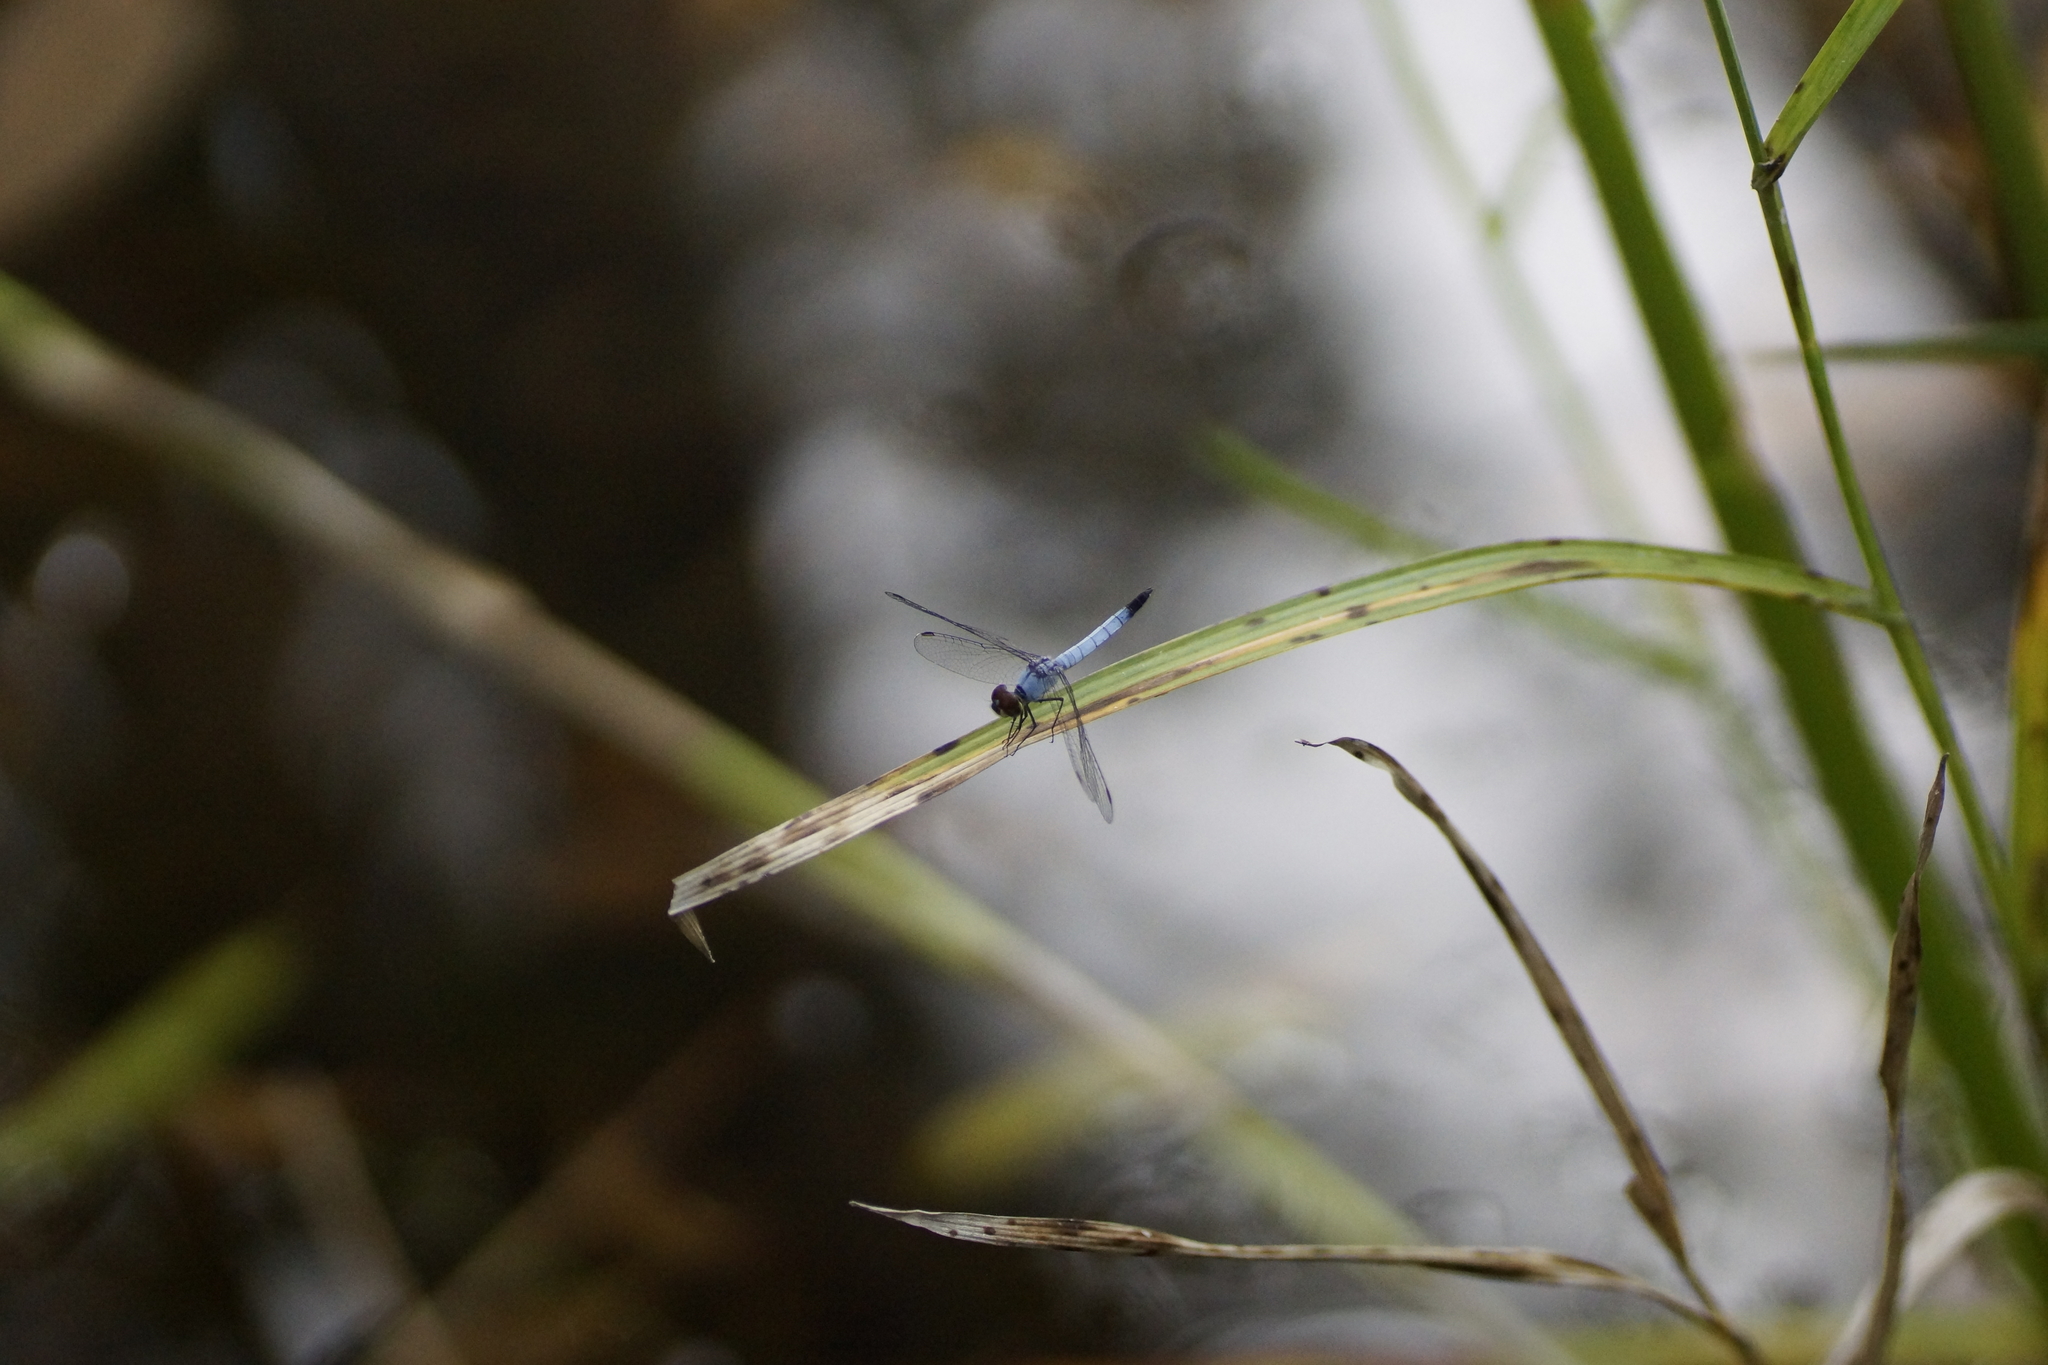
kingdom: Animalia
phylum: Arthropoda
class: Insecta
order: Odonata
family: Libellulidae
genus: Brachydiplax
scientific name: Brachydiplax denticauda
